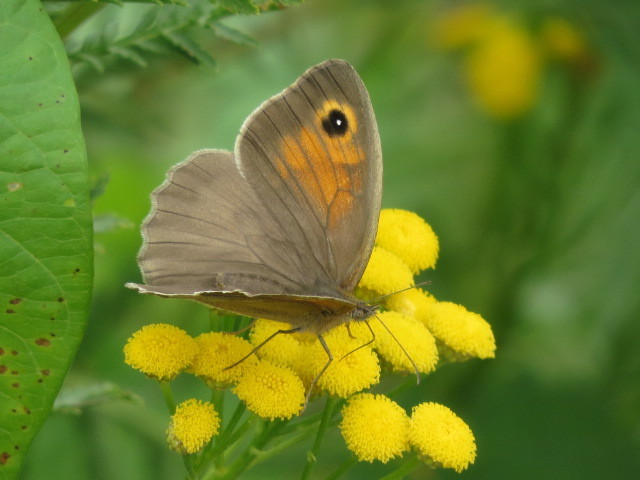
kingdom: Animalia
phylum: Arthropoda
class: Insecta
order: Lepidoptera
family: Nymphalidae
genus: Maniola
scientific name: Maniola jurtina
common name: Meadow brown
